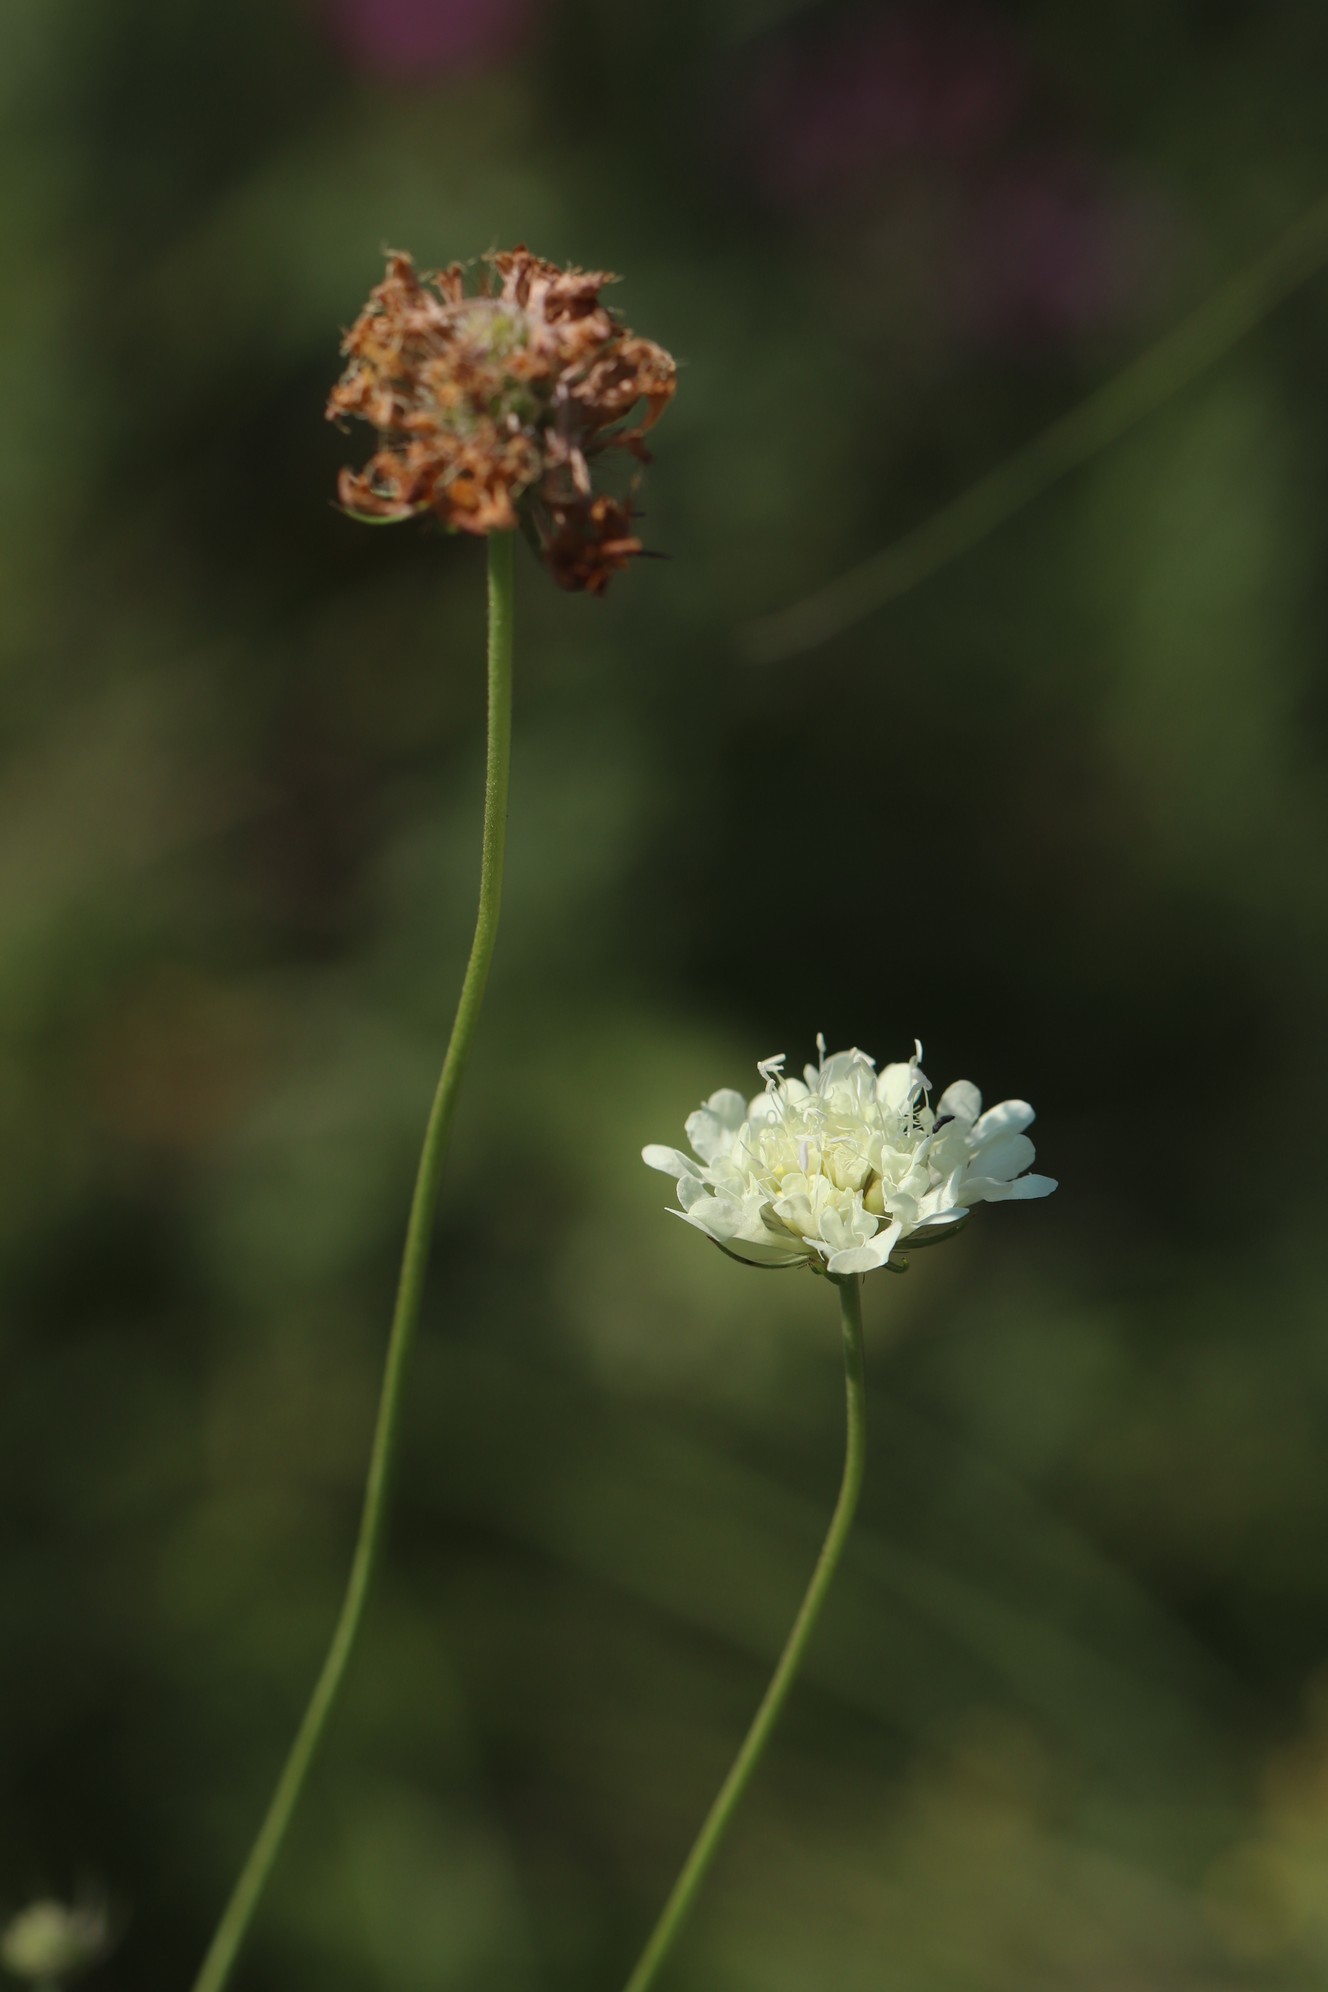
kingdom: Plantae
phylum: Tracheophyta
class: Magnoliopsida
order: Dipsacales
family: Caprifoliaceae
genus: Scabiosa
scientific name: Scabiosa ochroleuca
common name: Cream pincushions
